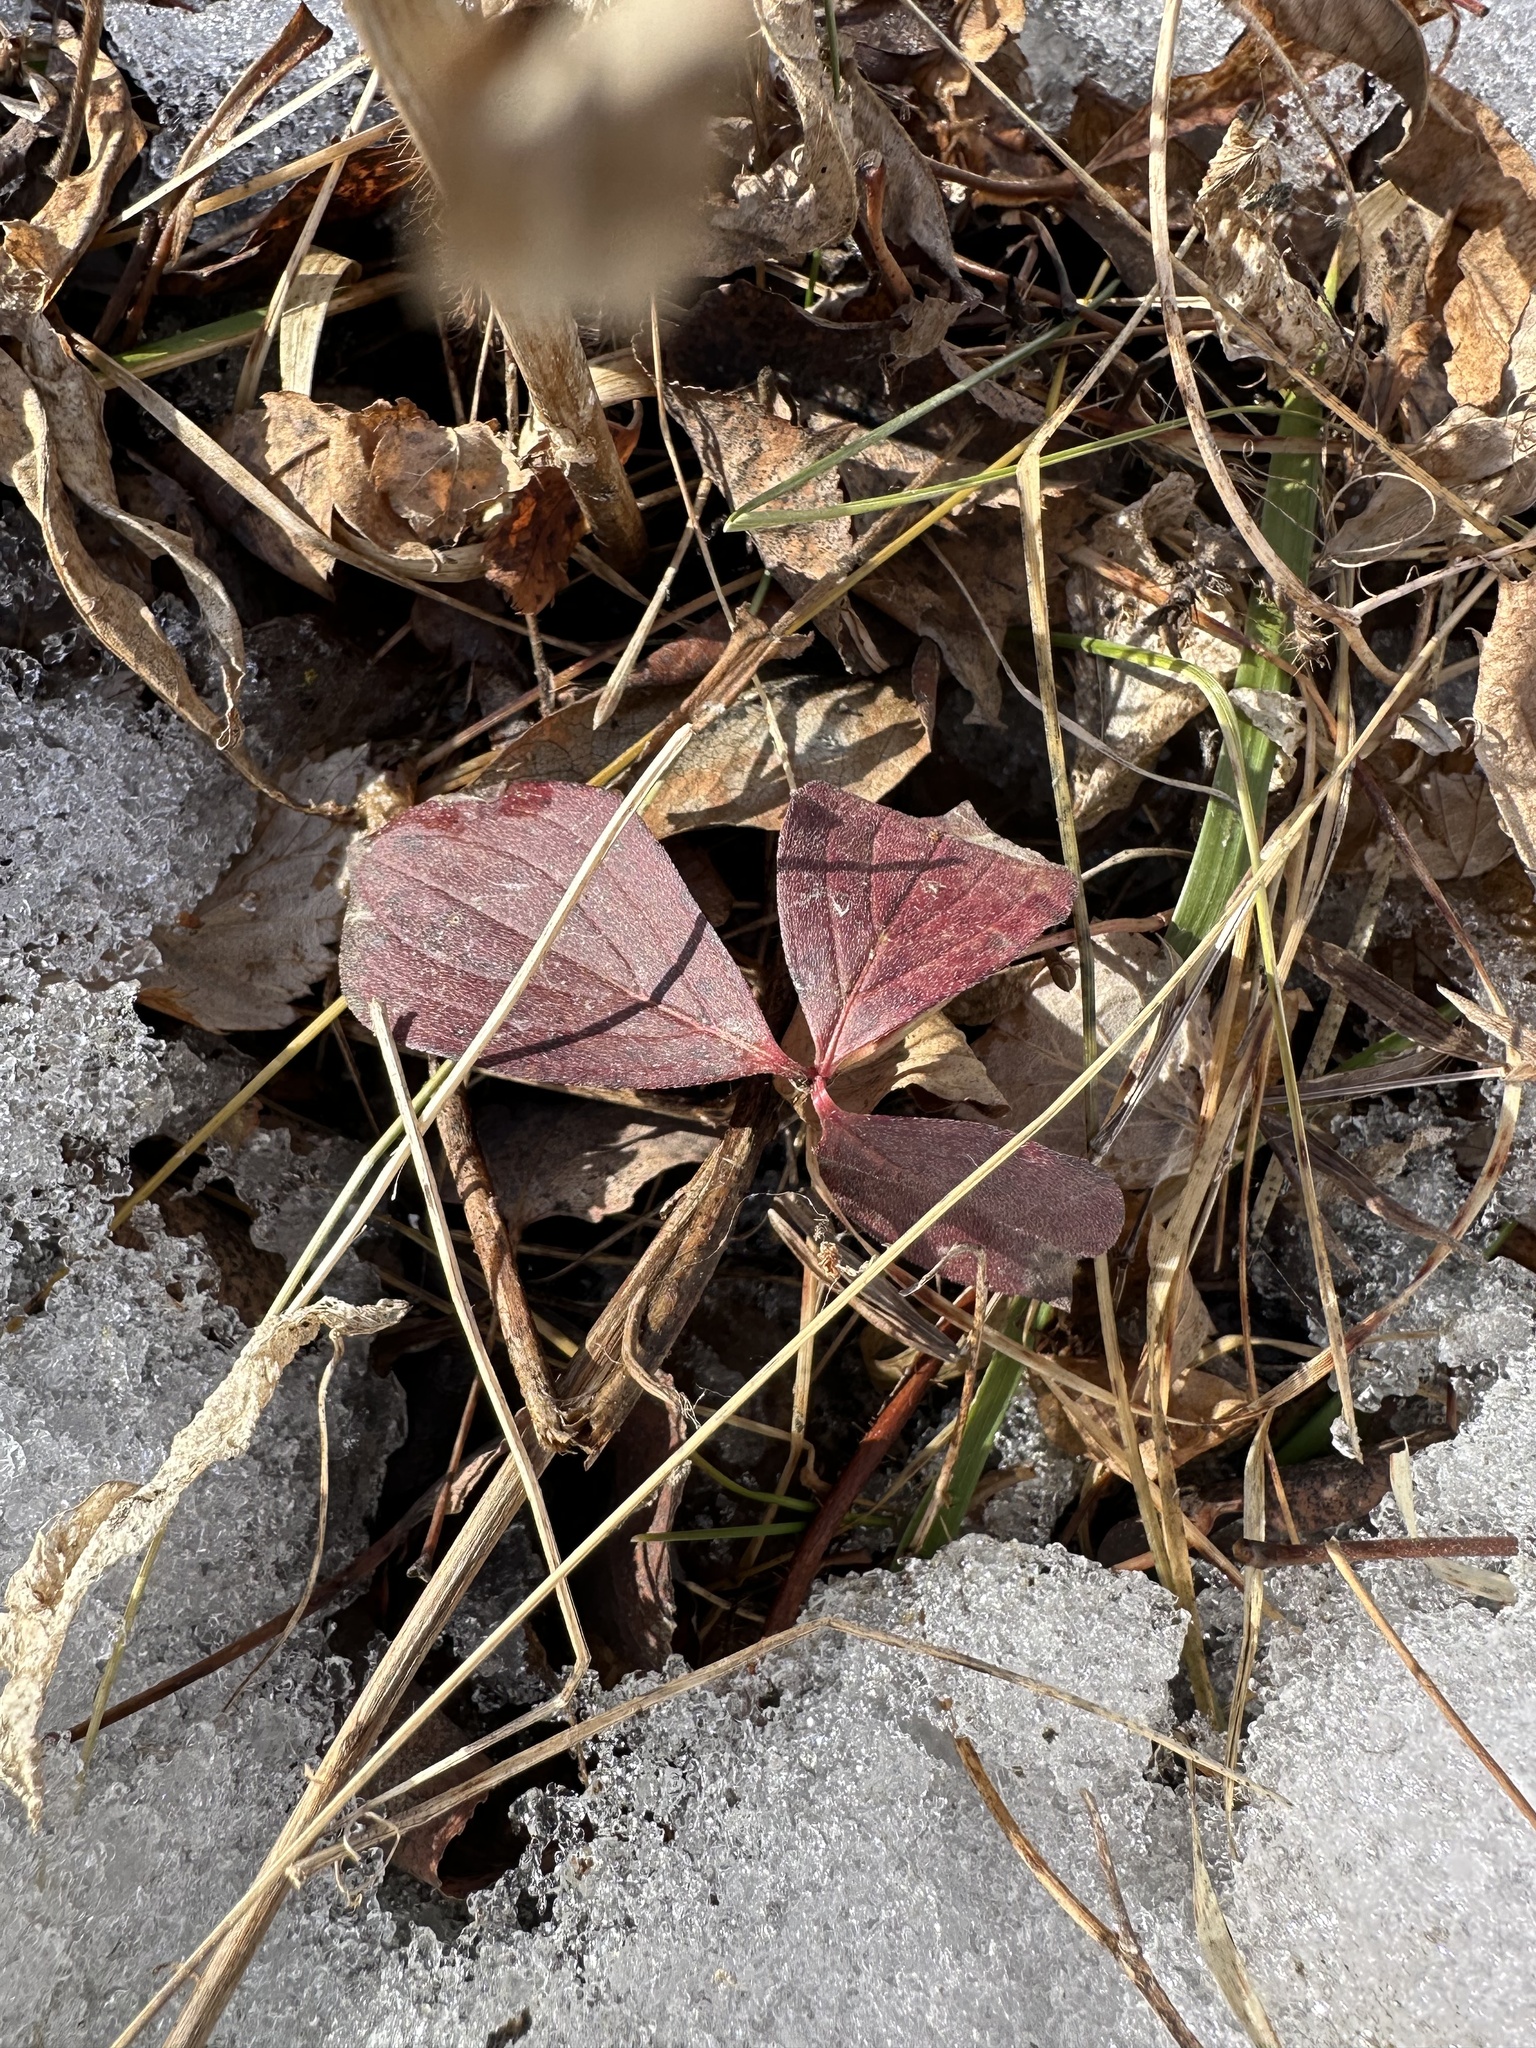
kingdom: Plantae
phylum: Tracheophyta
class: Magnoliopsida
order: Cornales
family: Cornaceae
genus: Cornus
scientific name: Cornus canadensis
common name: Creeping dogwood
